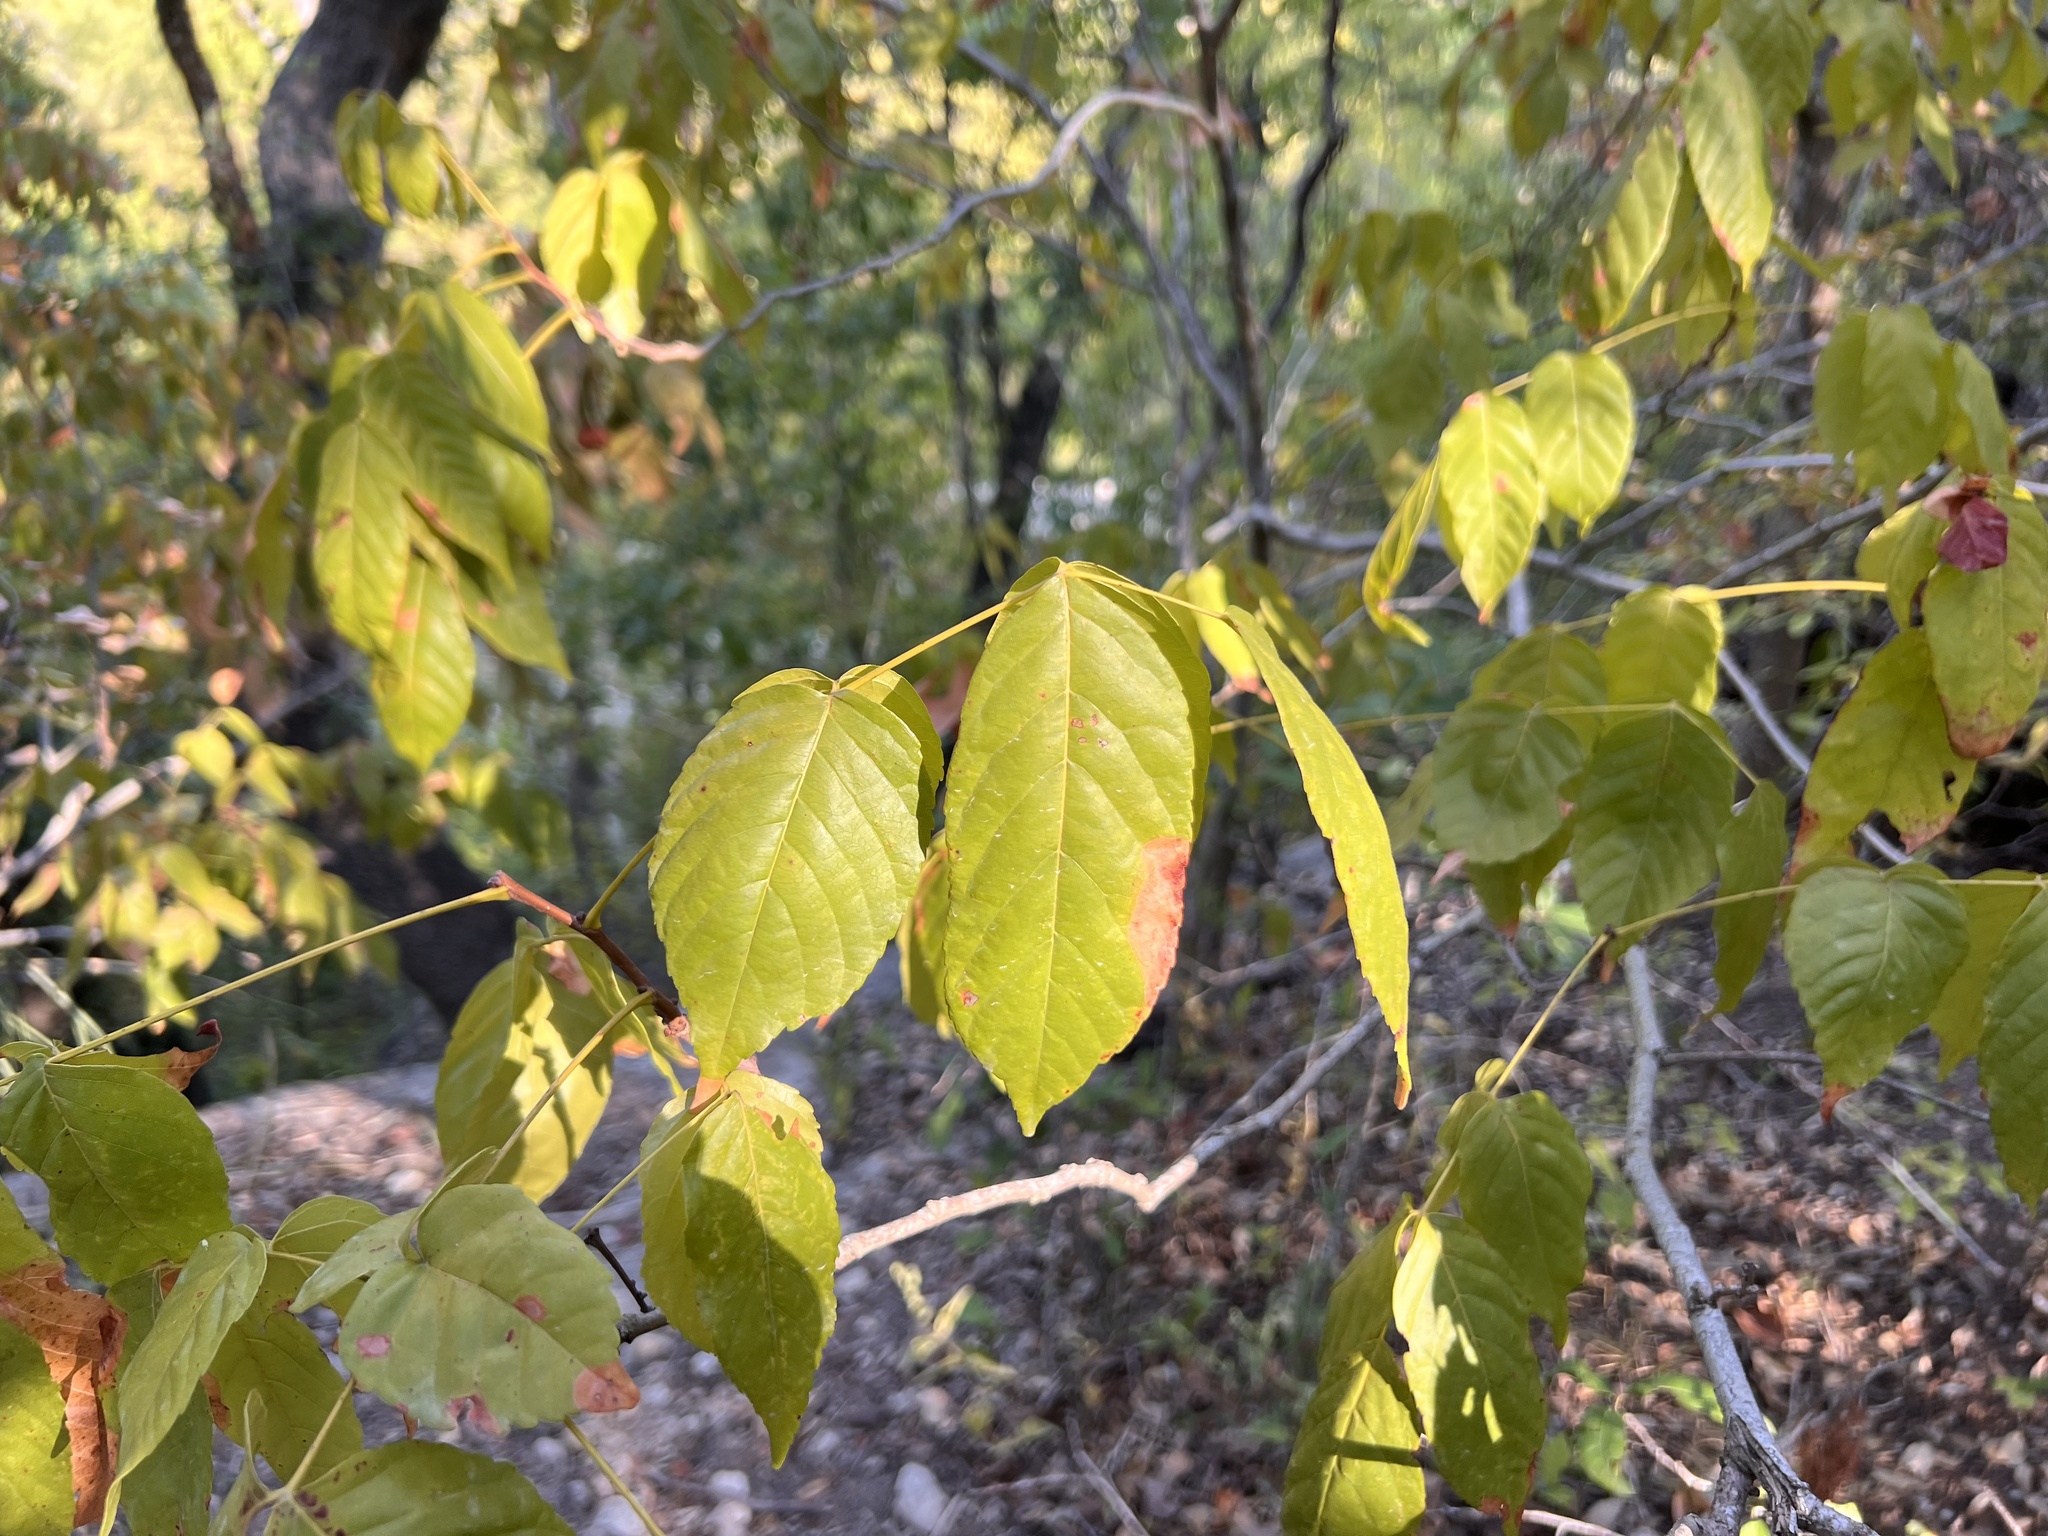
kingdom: Plantae
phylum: Tracheophyta
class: Magnoliopsida
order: Sapindales
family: Sapindaceae
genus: Ungnadia
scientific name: Ungnadia speciosa
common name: Texas-buckeye
